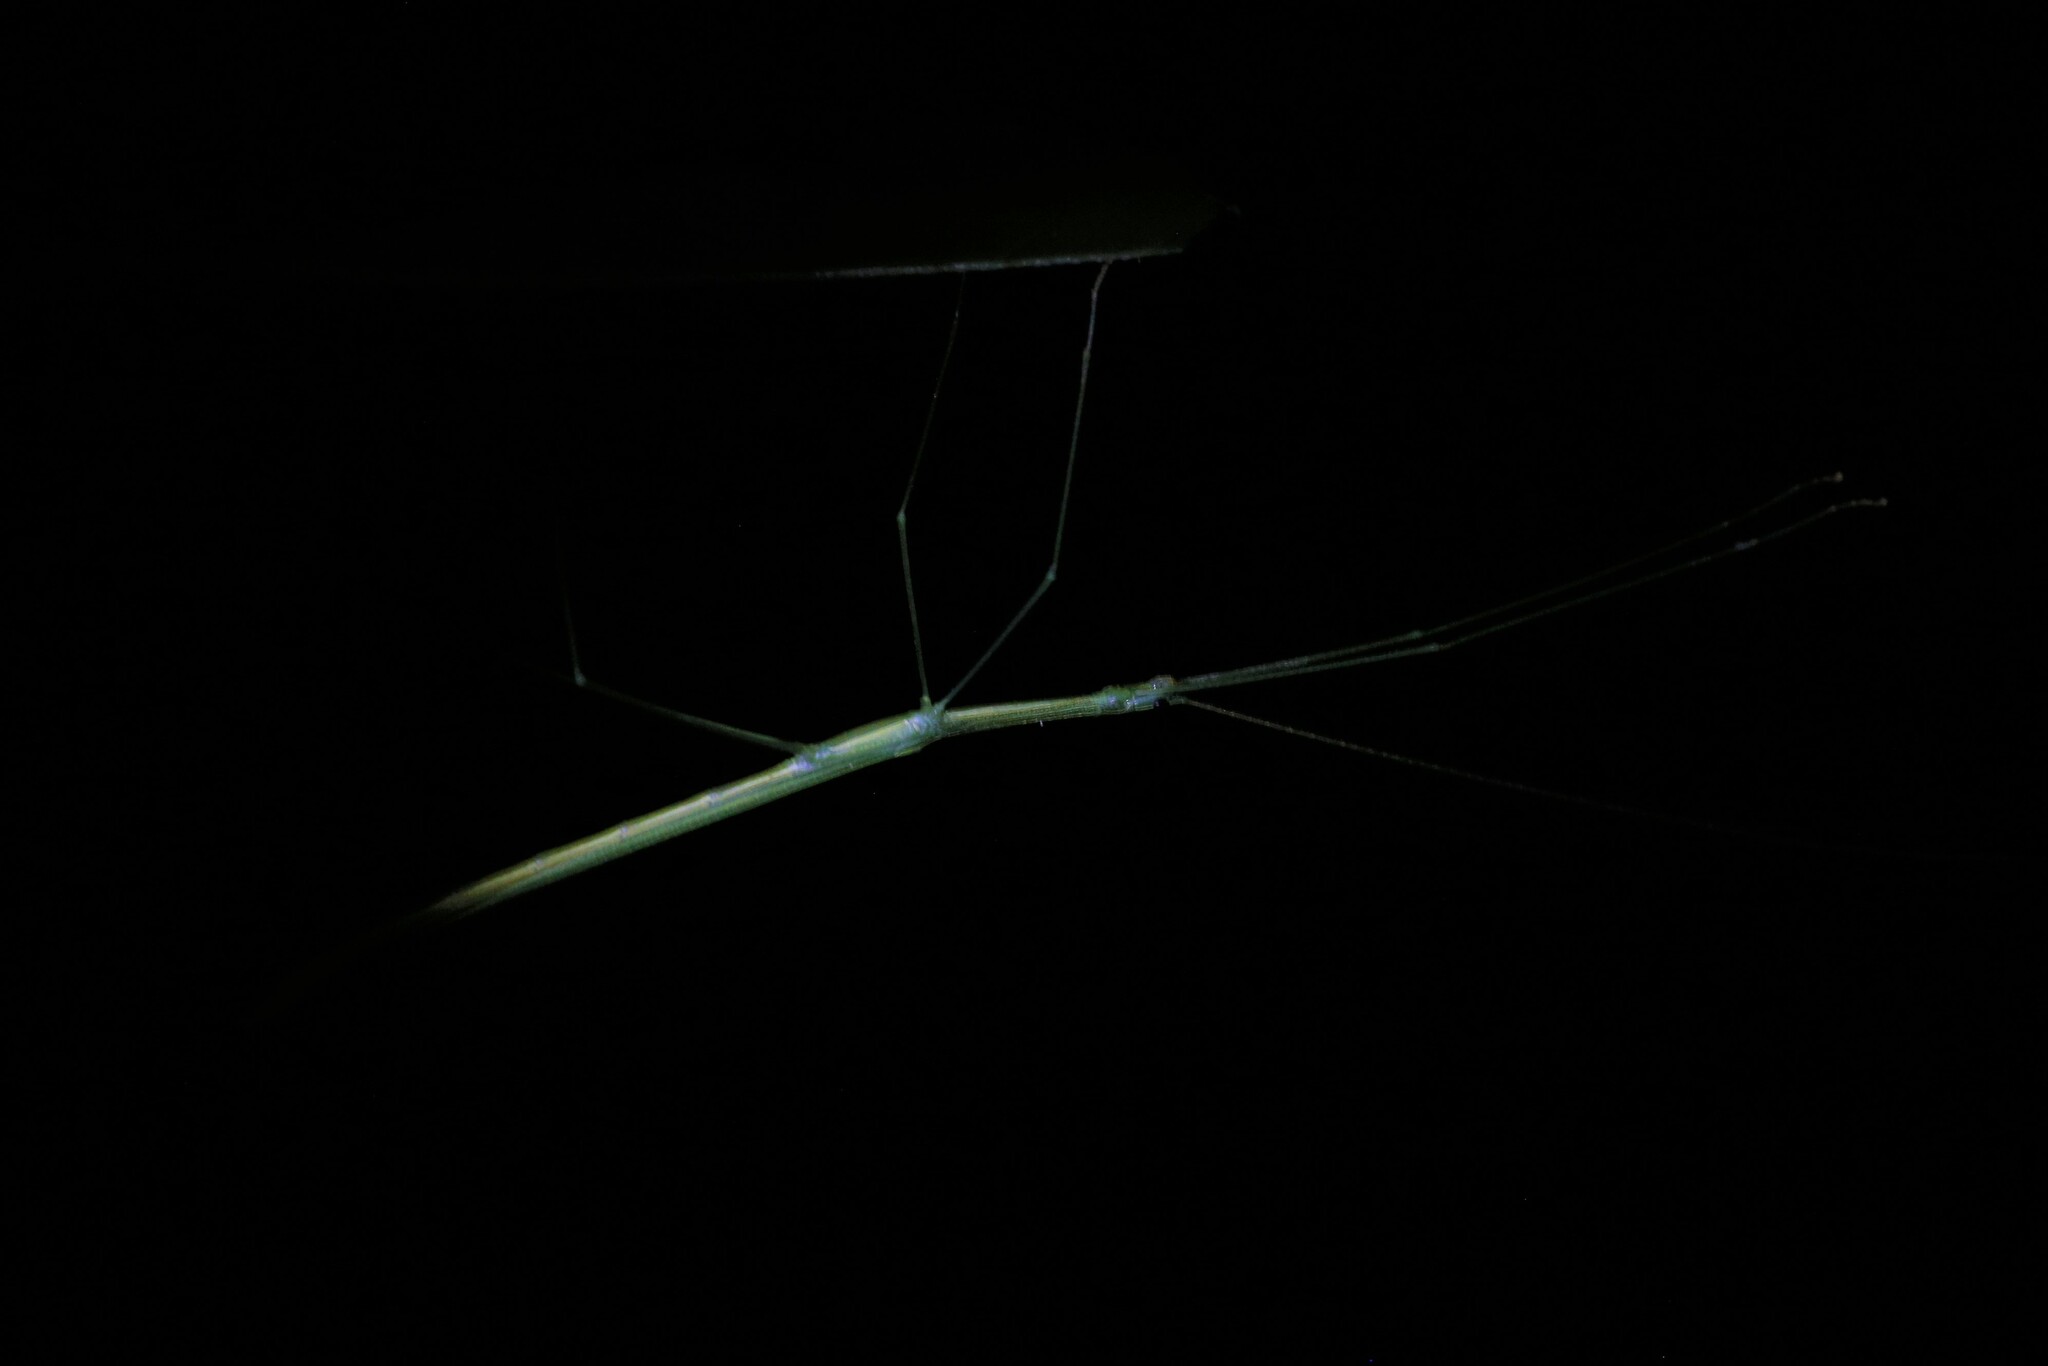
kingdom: Animalia
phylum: Arthropoda
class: Insecta
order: Phasmida
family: Lonchodidae
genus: Sipyloidea
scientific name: Sipyloidea rentzi
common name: Rentz's sipyloidea stick-insect
